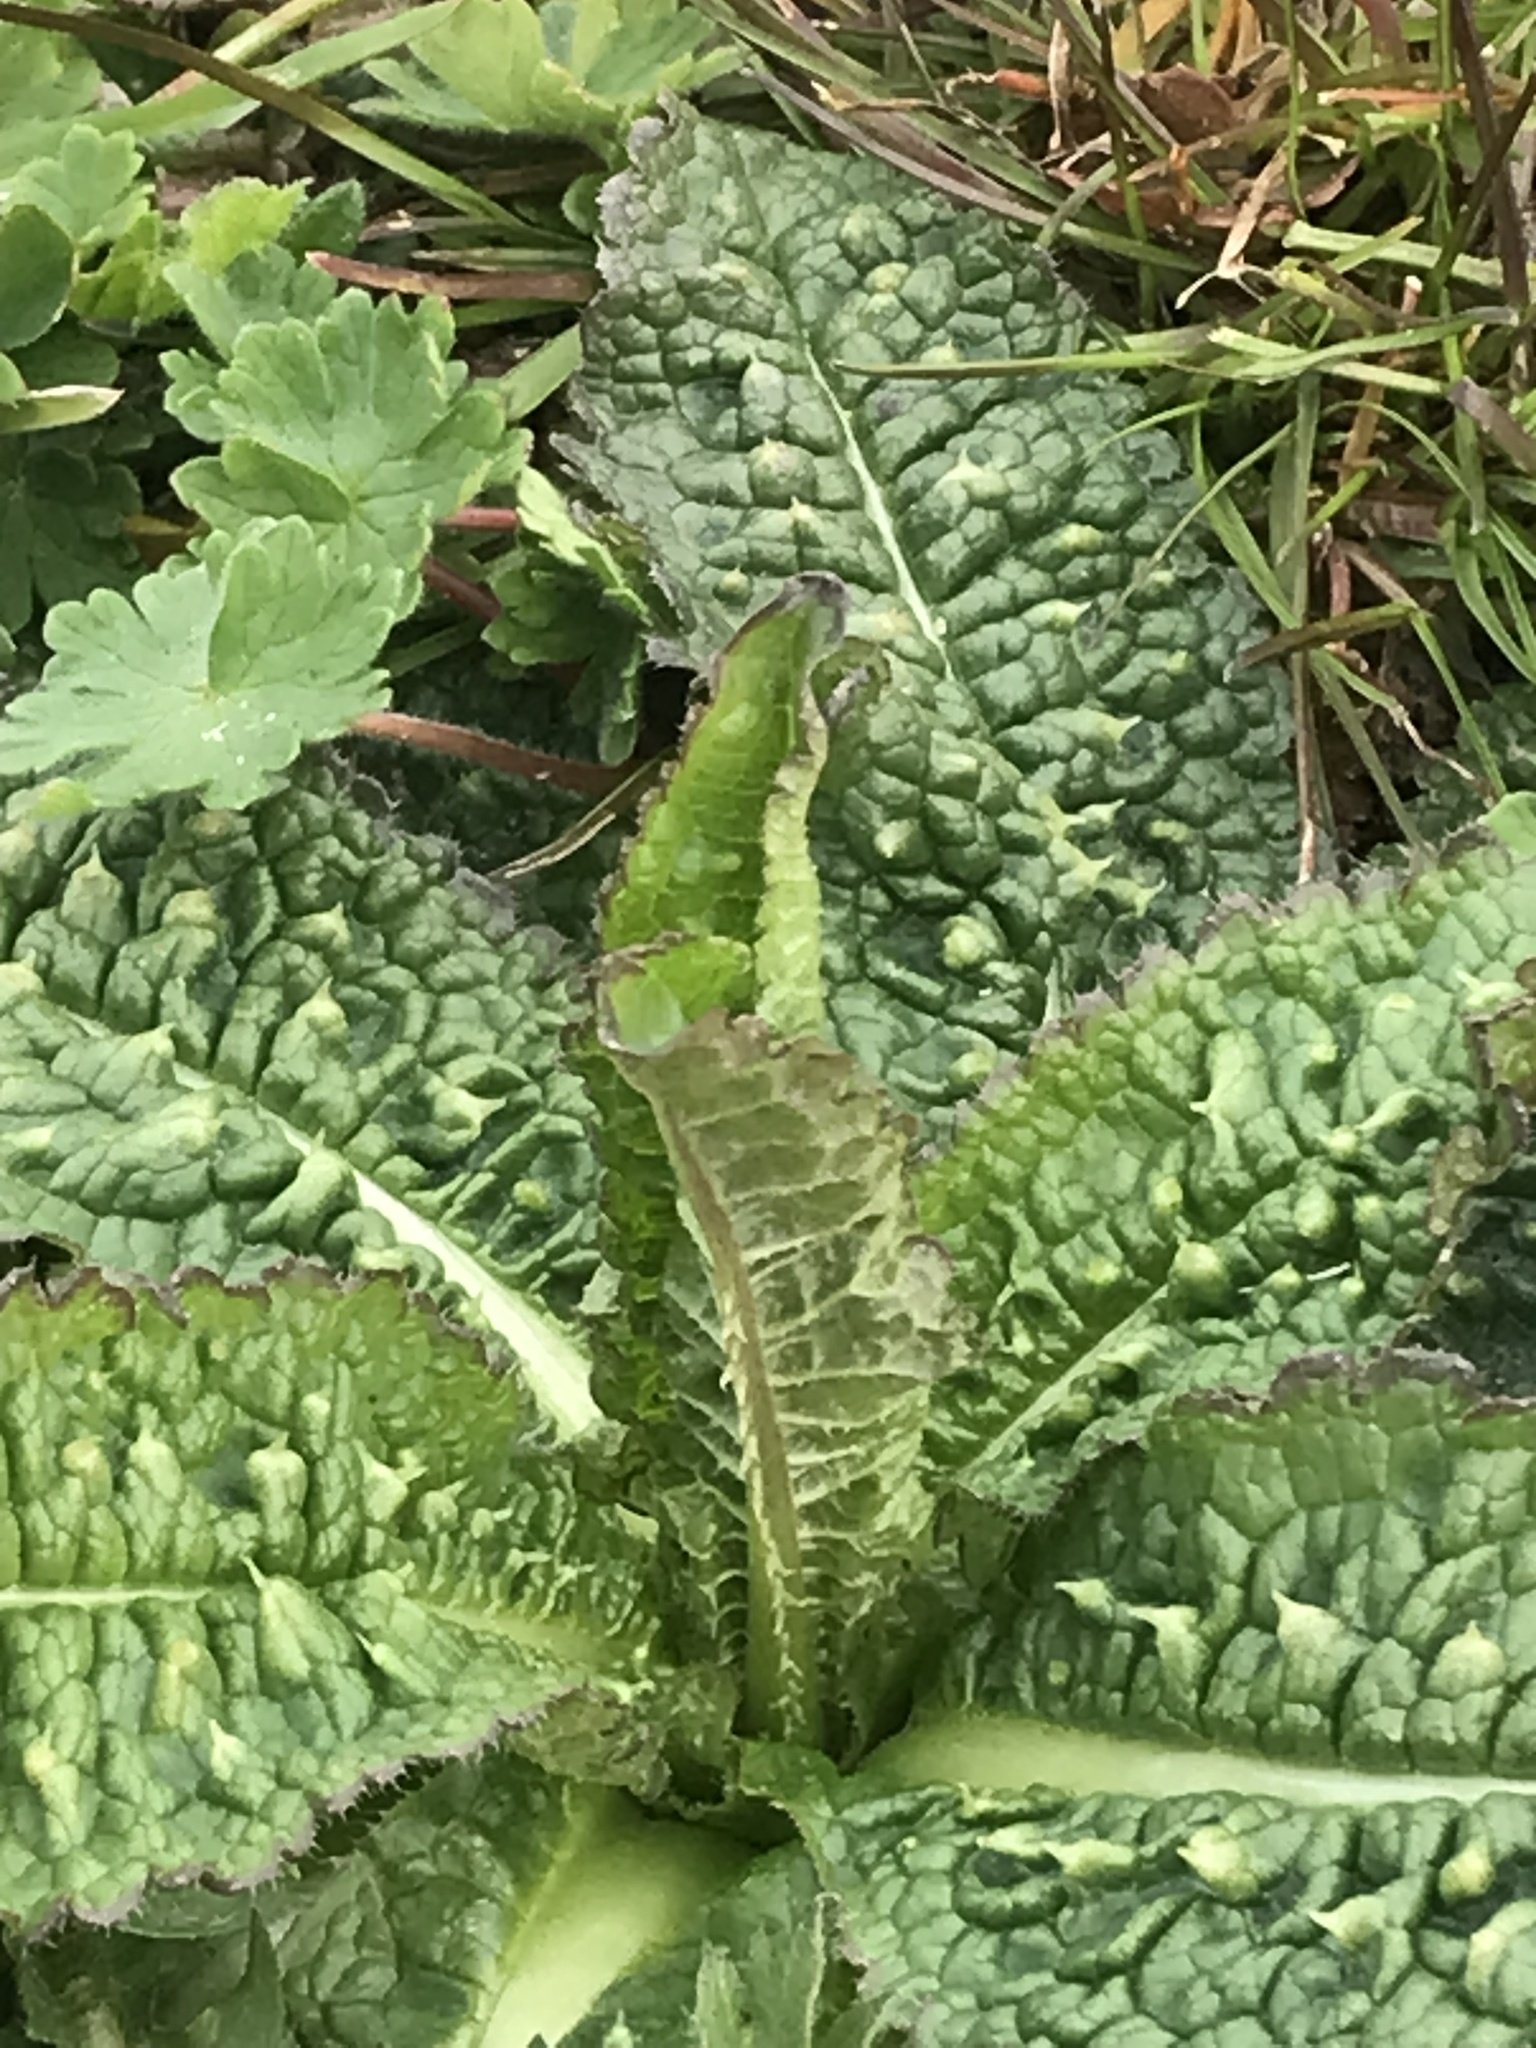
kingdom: Plantae
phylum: Tracheophyta
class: Magnoliopsida
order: Dipsacales
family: Caprifoliaceae
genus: Dipsacus
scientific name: Dipsacus fullonum
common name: Teasel
